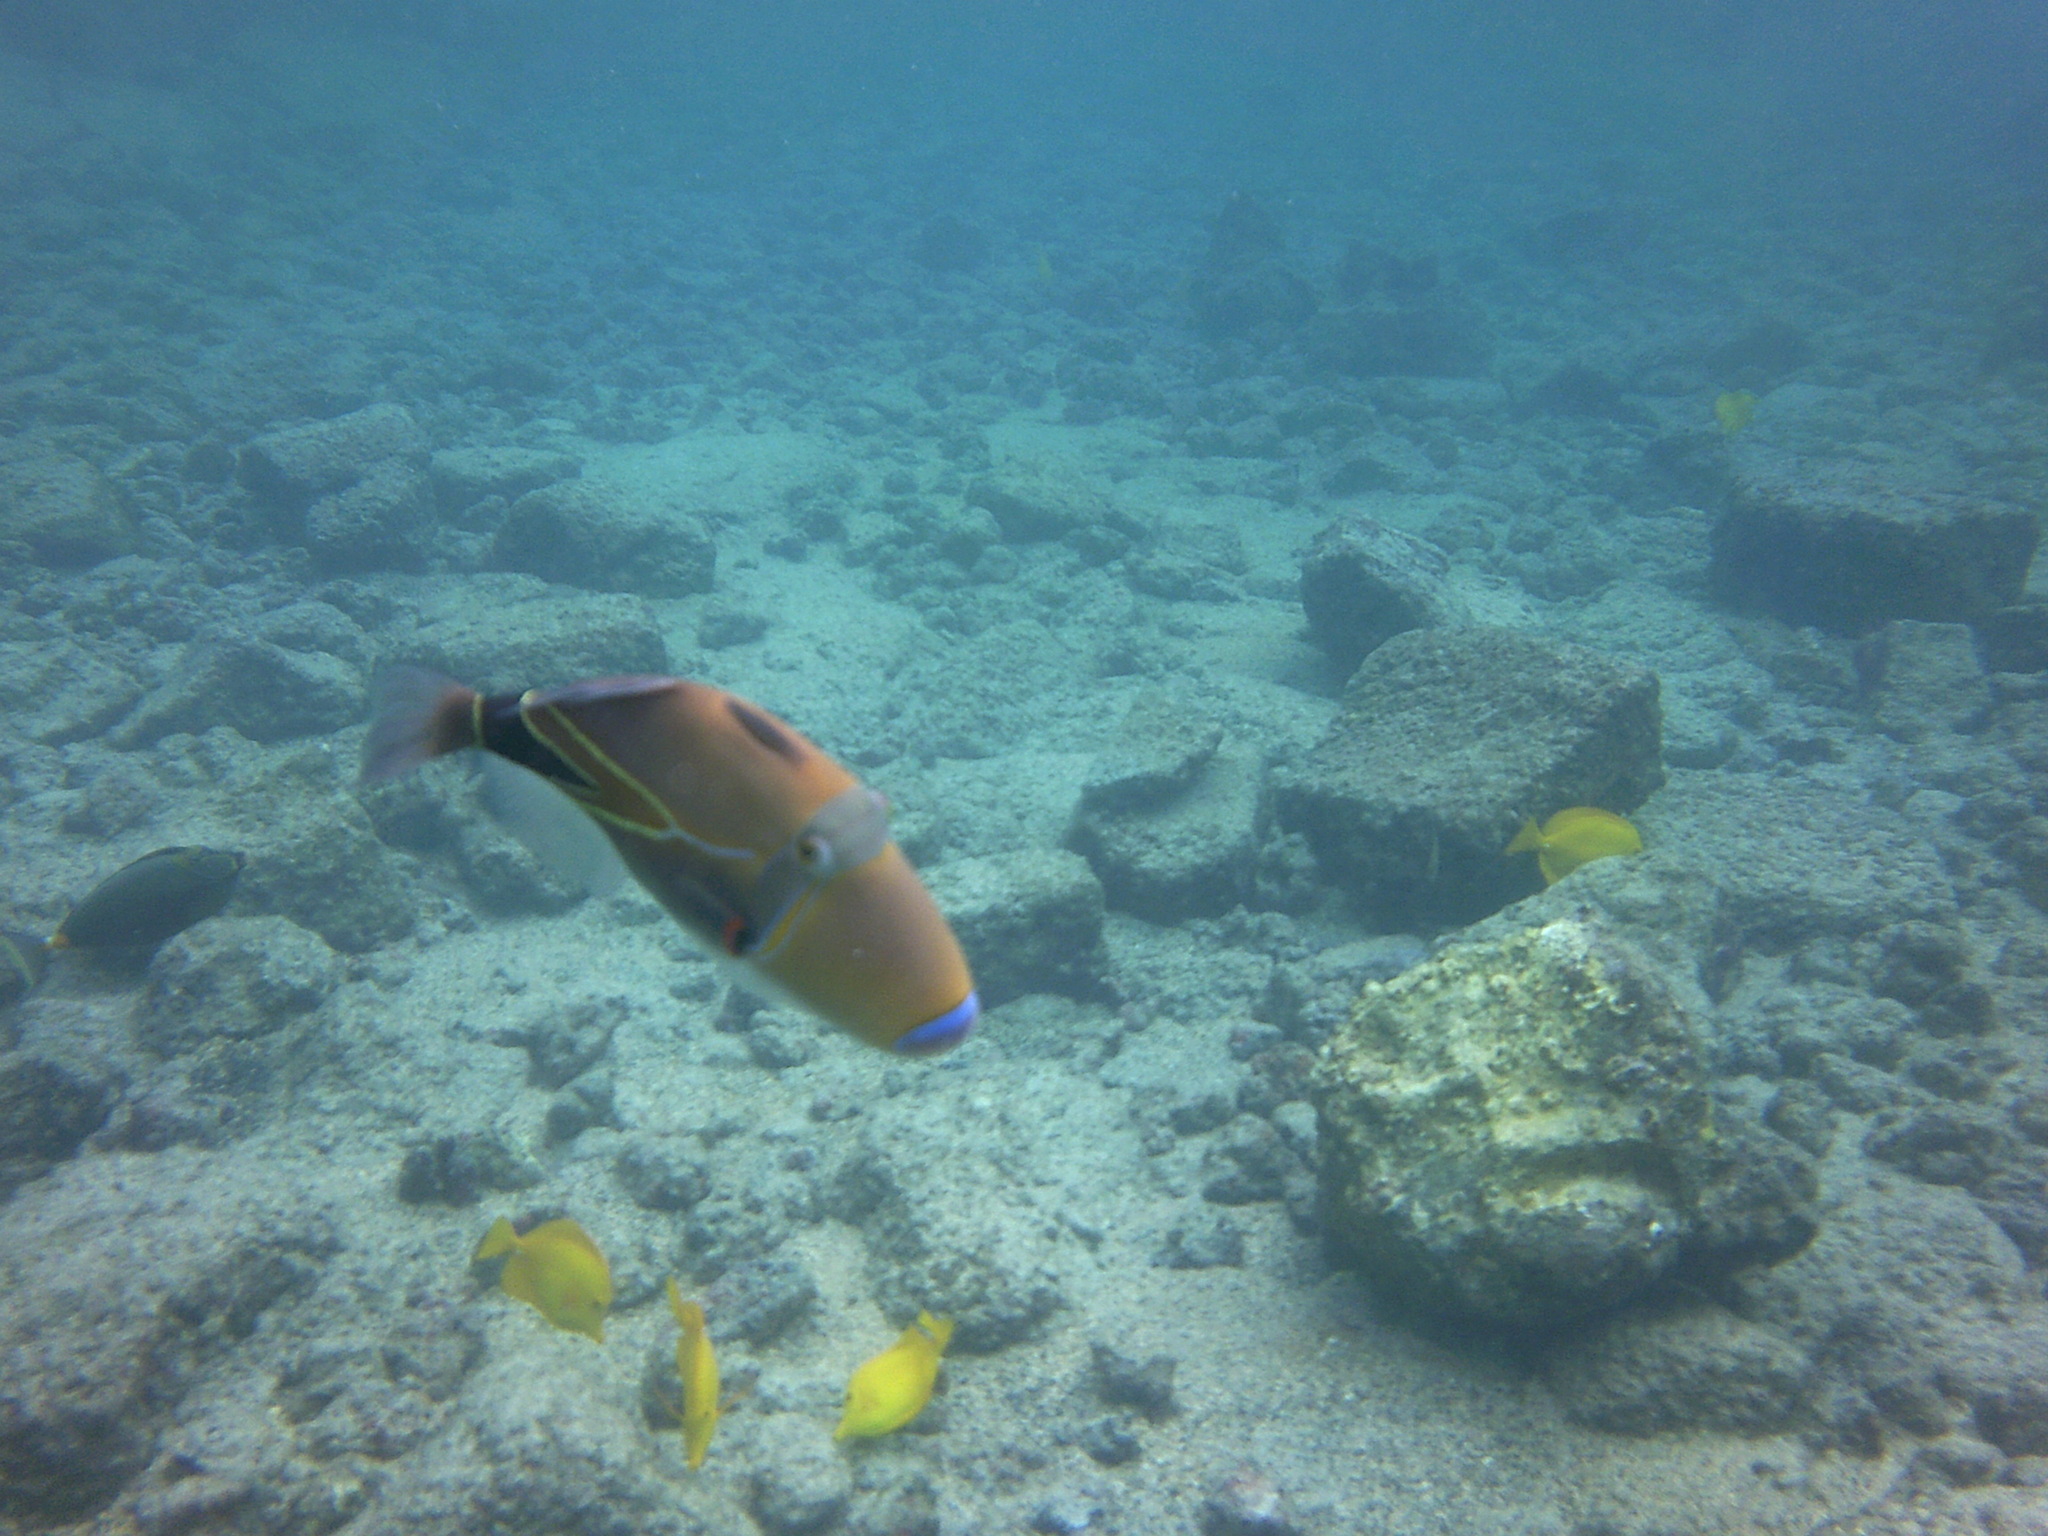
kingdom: Animalia
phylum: Chordata
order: Tetraodontiformes
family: Balistidae
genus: Rhinecanthus
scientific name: Rhinecanthus rectangulus
